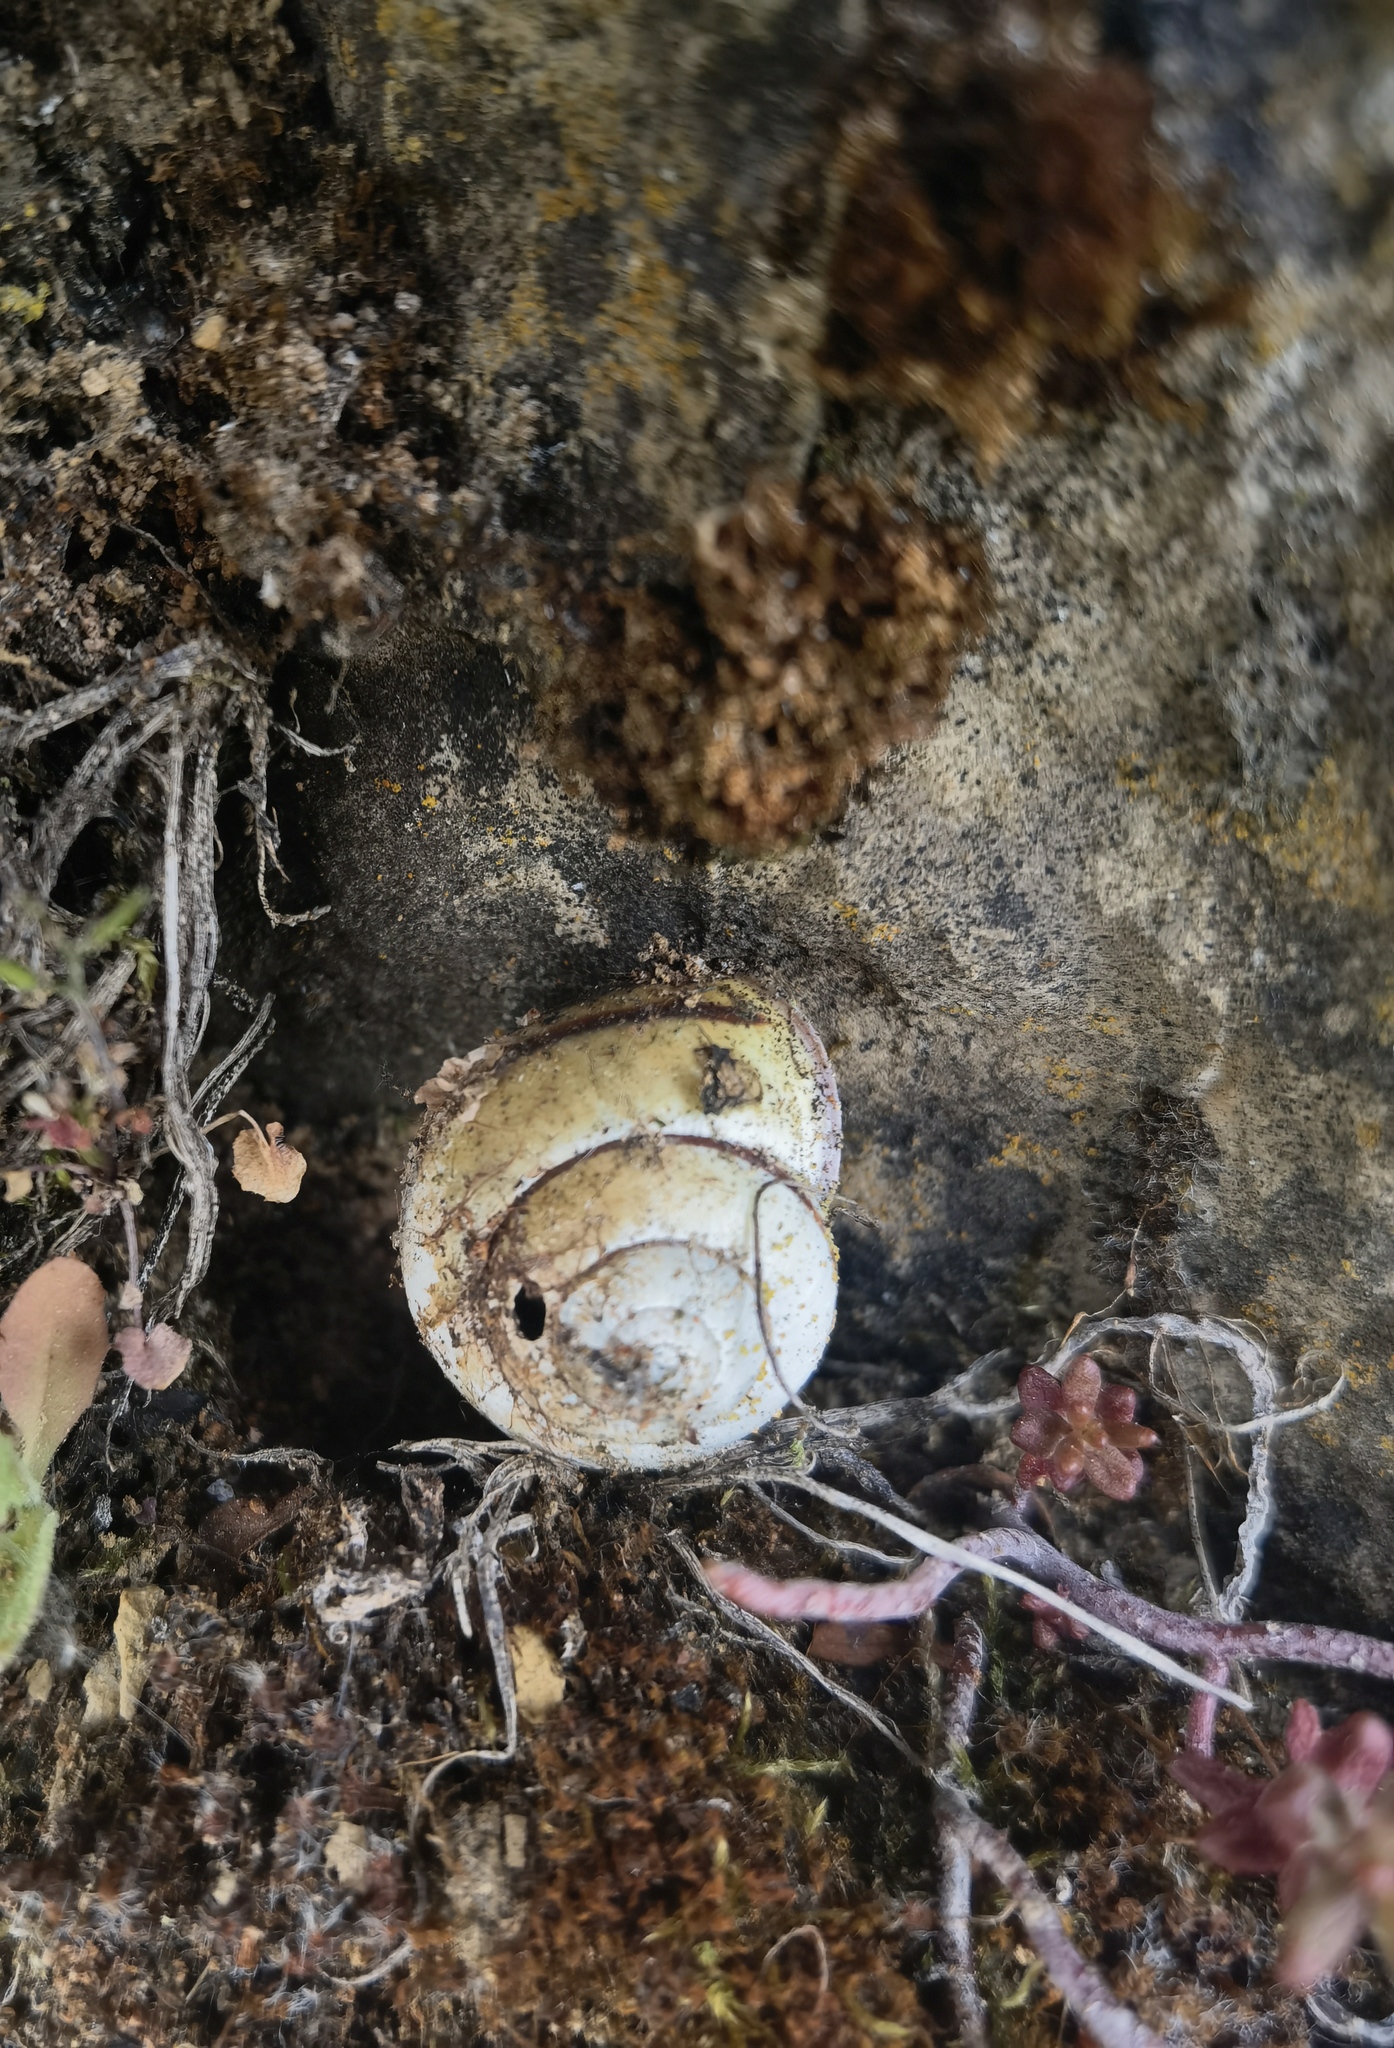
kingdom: Animalia
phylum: Mollusca
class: Gastropoda
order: Stylommatophora
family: Helicidae
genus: Cepaea
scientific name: Cepaea nemoralis
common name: Grovesnail
